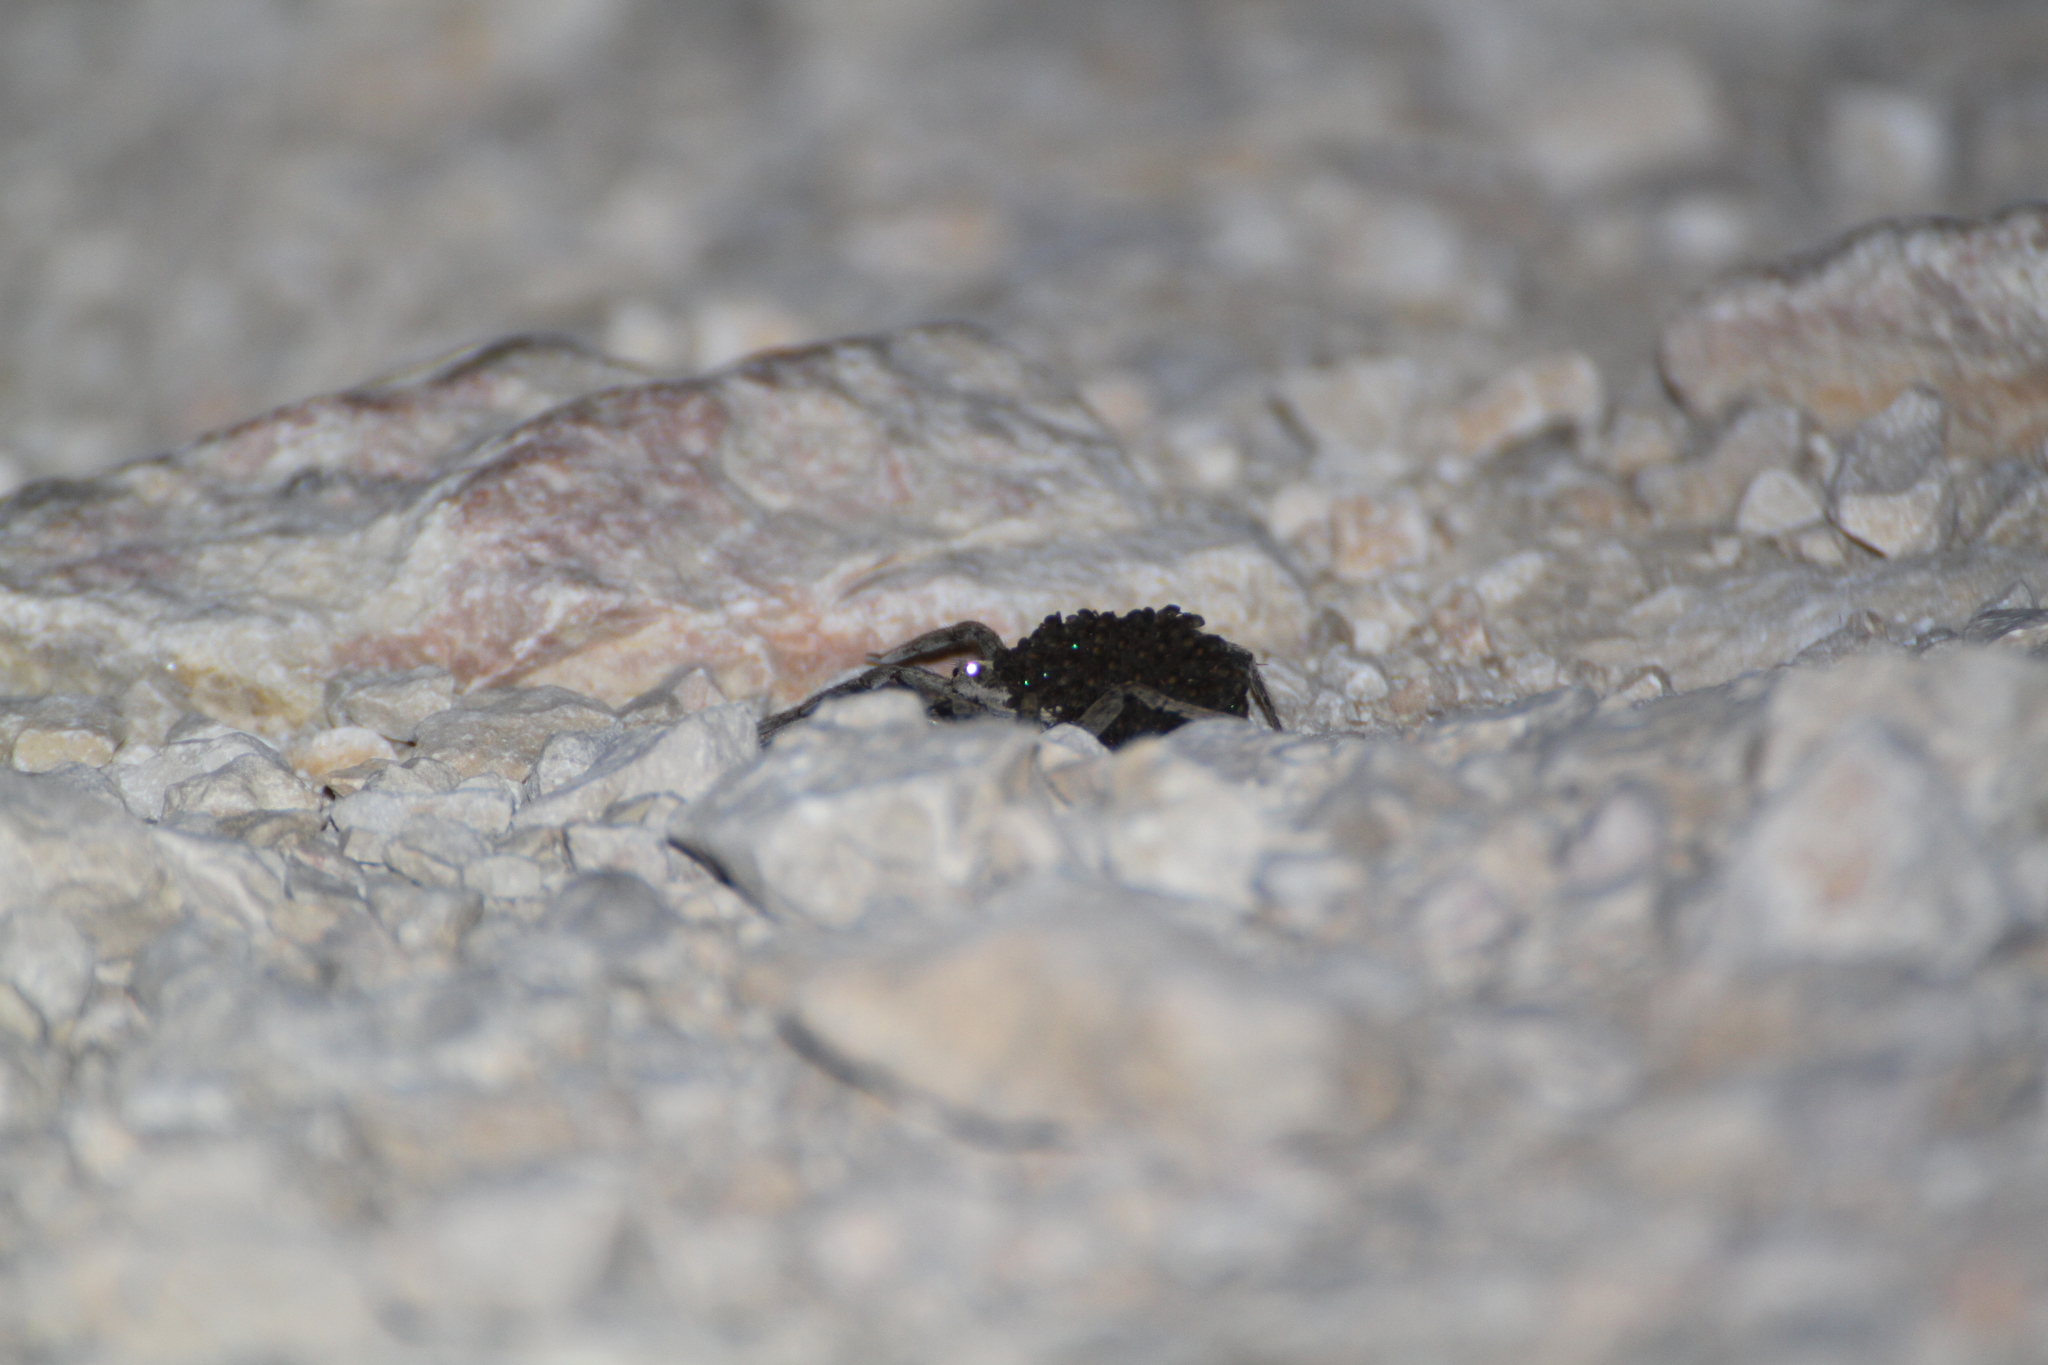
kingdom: Animalia
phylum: Arthropoda
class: Arachnida
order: Araneae
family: Lycosidae
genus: Hogna
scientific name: Hogna radiata
